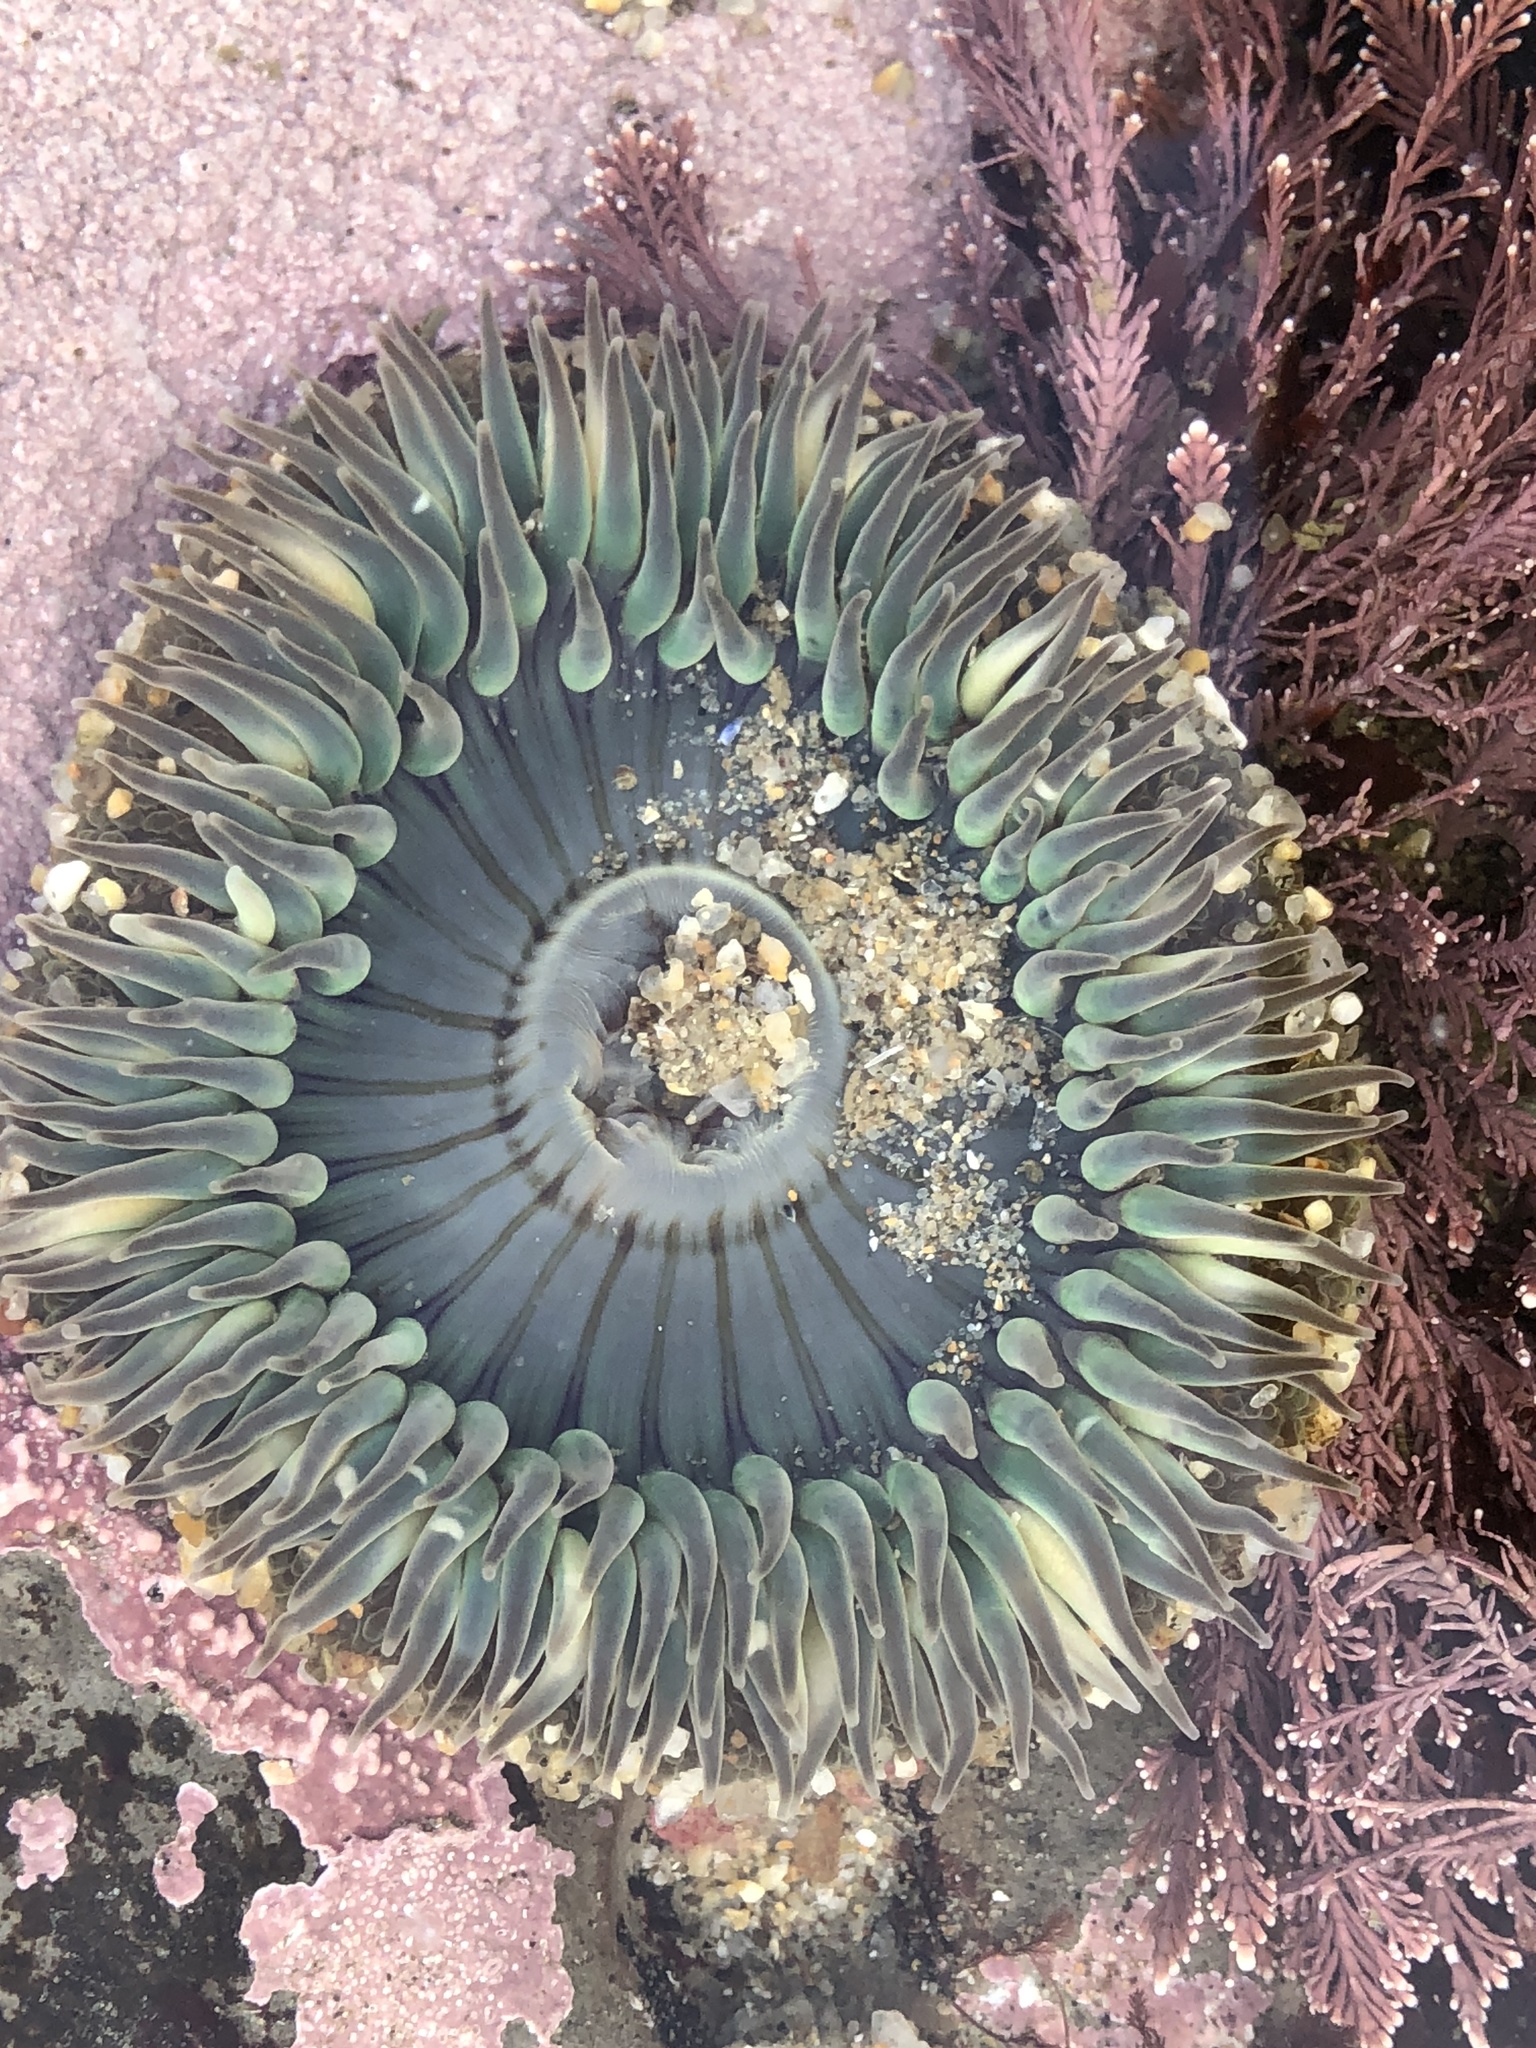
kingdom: Animalia
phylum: Cnidaria
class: Anthozoa
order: Actiniaria
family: Actiniidae
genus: Anthopleura
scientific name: Anthopleura sola
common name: Sun anemone
